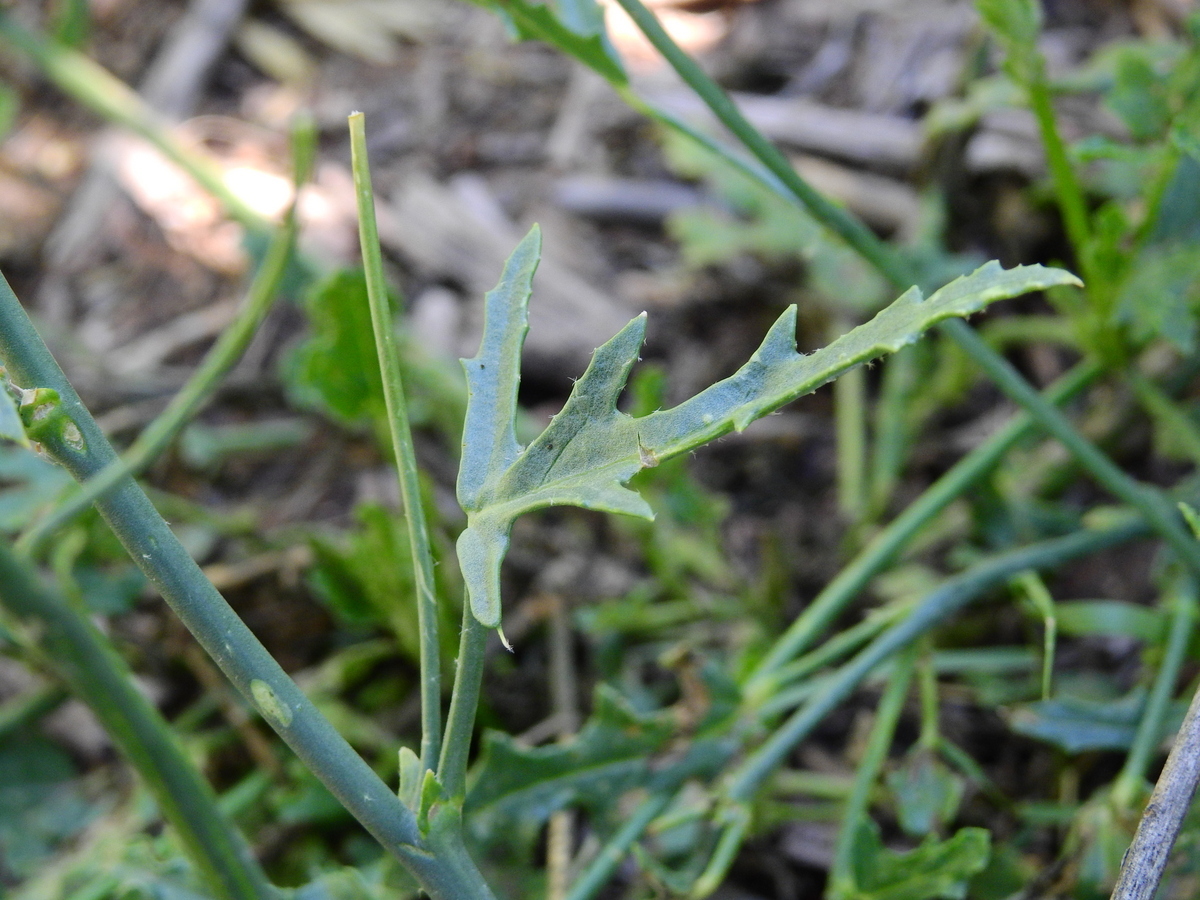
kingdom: Plantae
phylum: Tracheophyta
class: Magnoliopsida
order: Malvales
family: Malvaceae
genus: Lecanophora
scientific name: Lecanophora heterophylla
